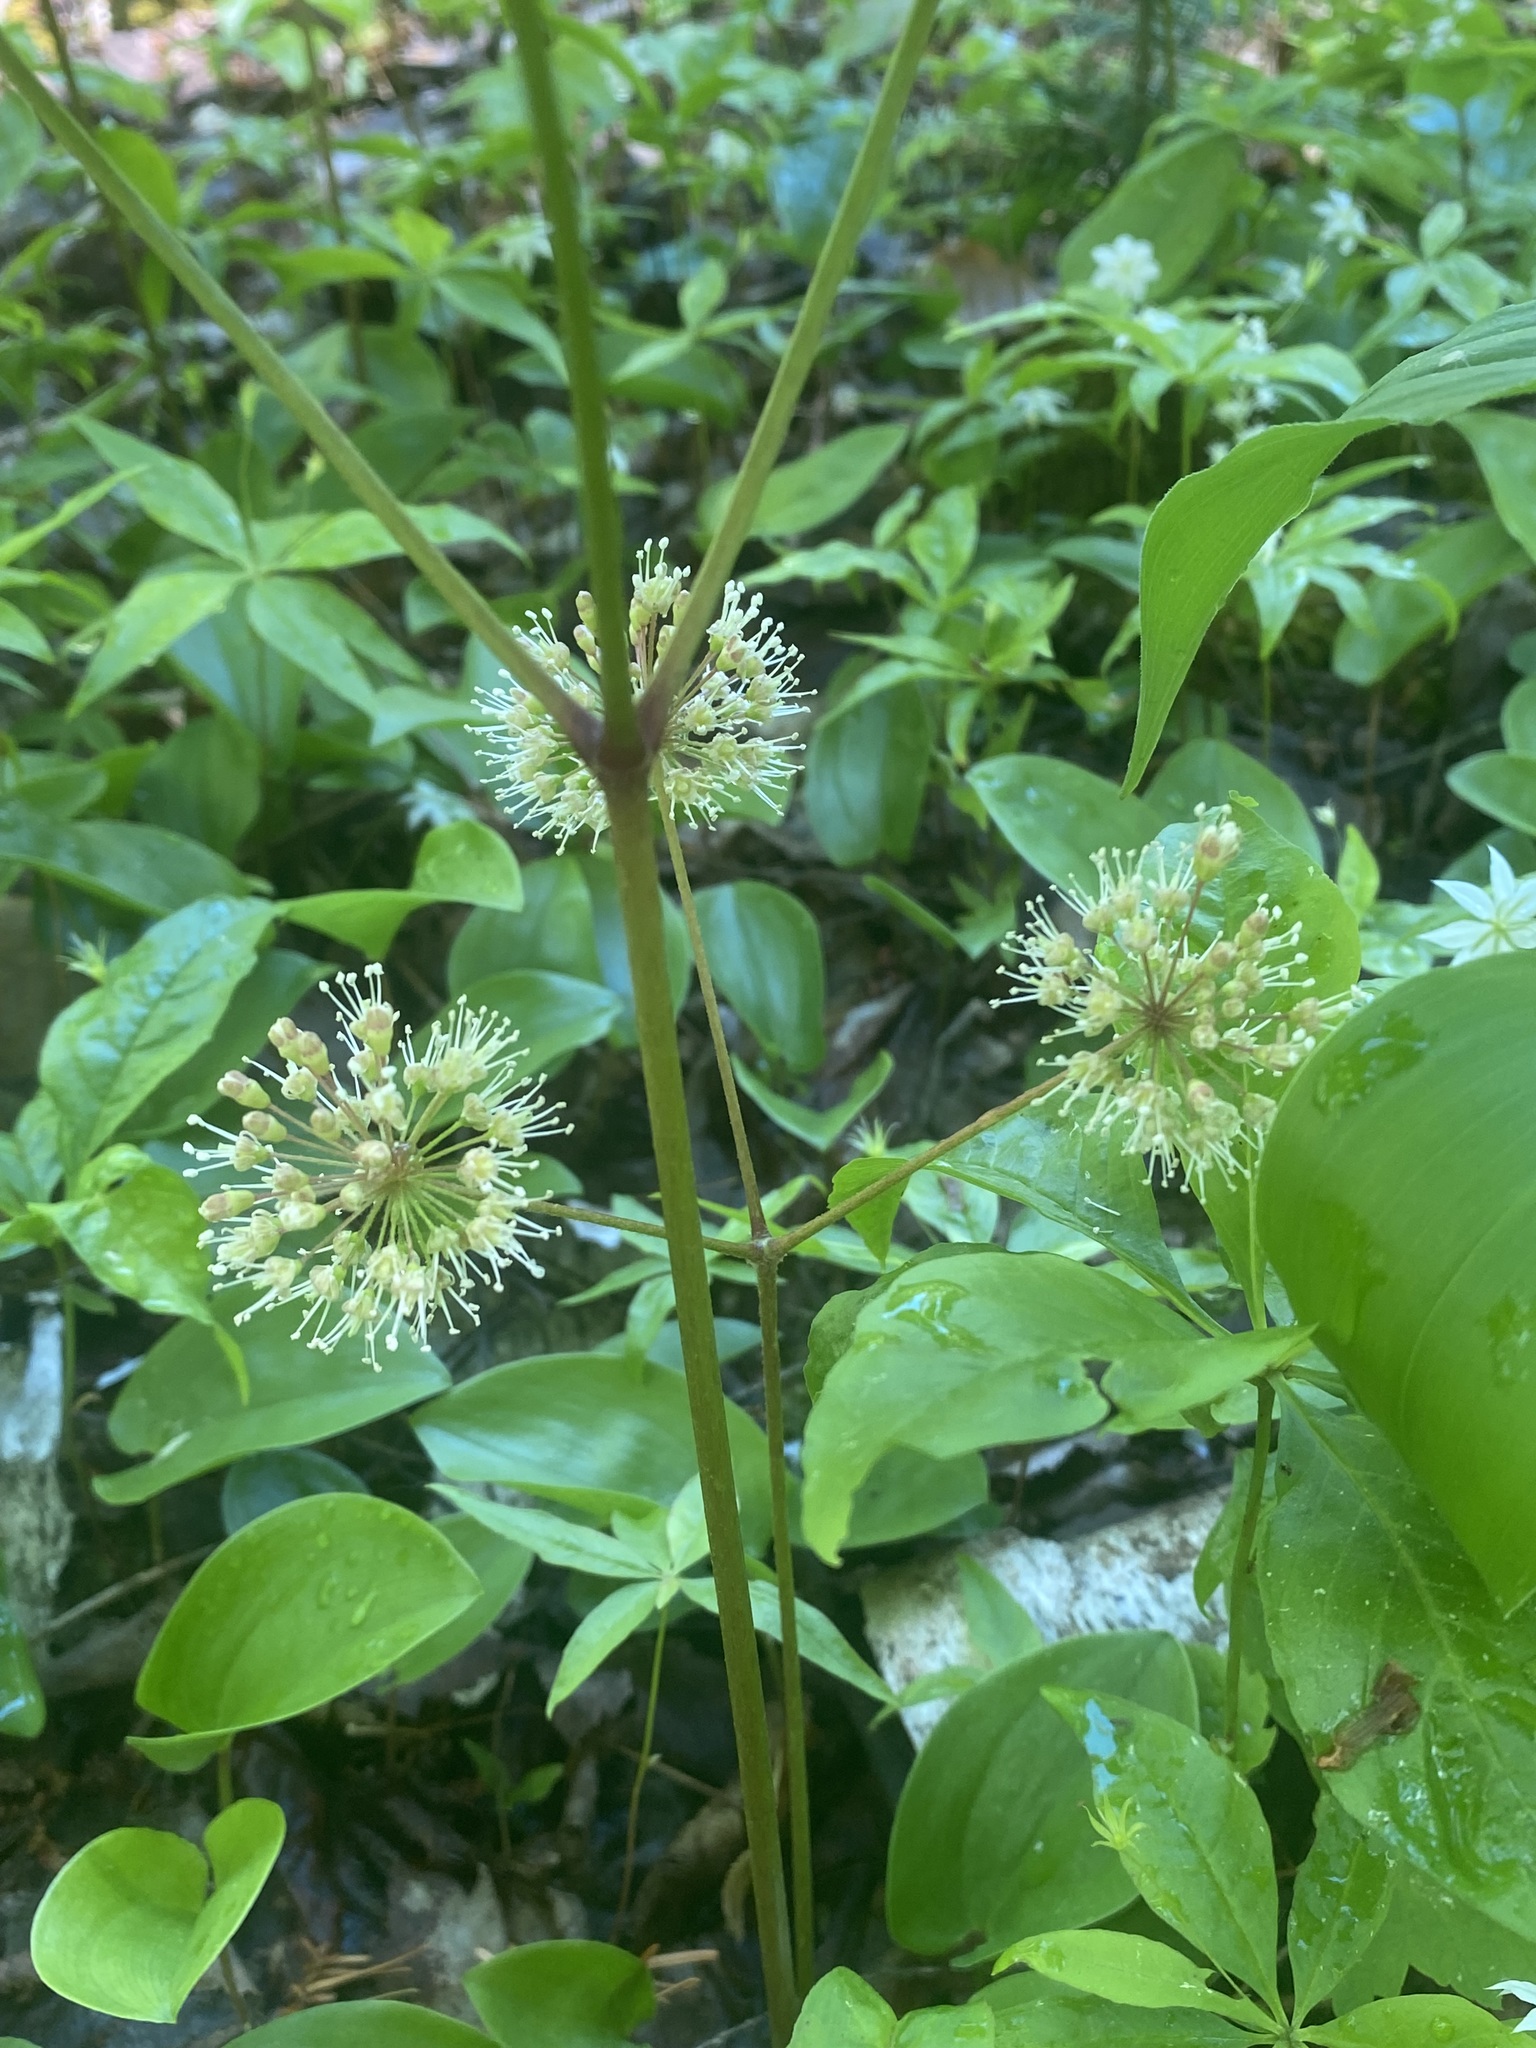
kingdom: Plantae
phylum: Tracheophyta
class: Magnoliopsida
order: Apiales
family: Araliaceae
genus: Aralia
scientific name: Aralia nudicaulis
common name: Wild sarsaparilla
